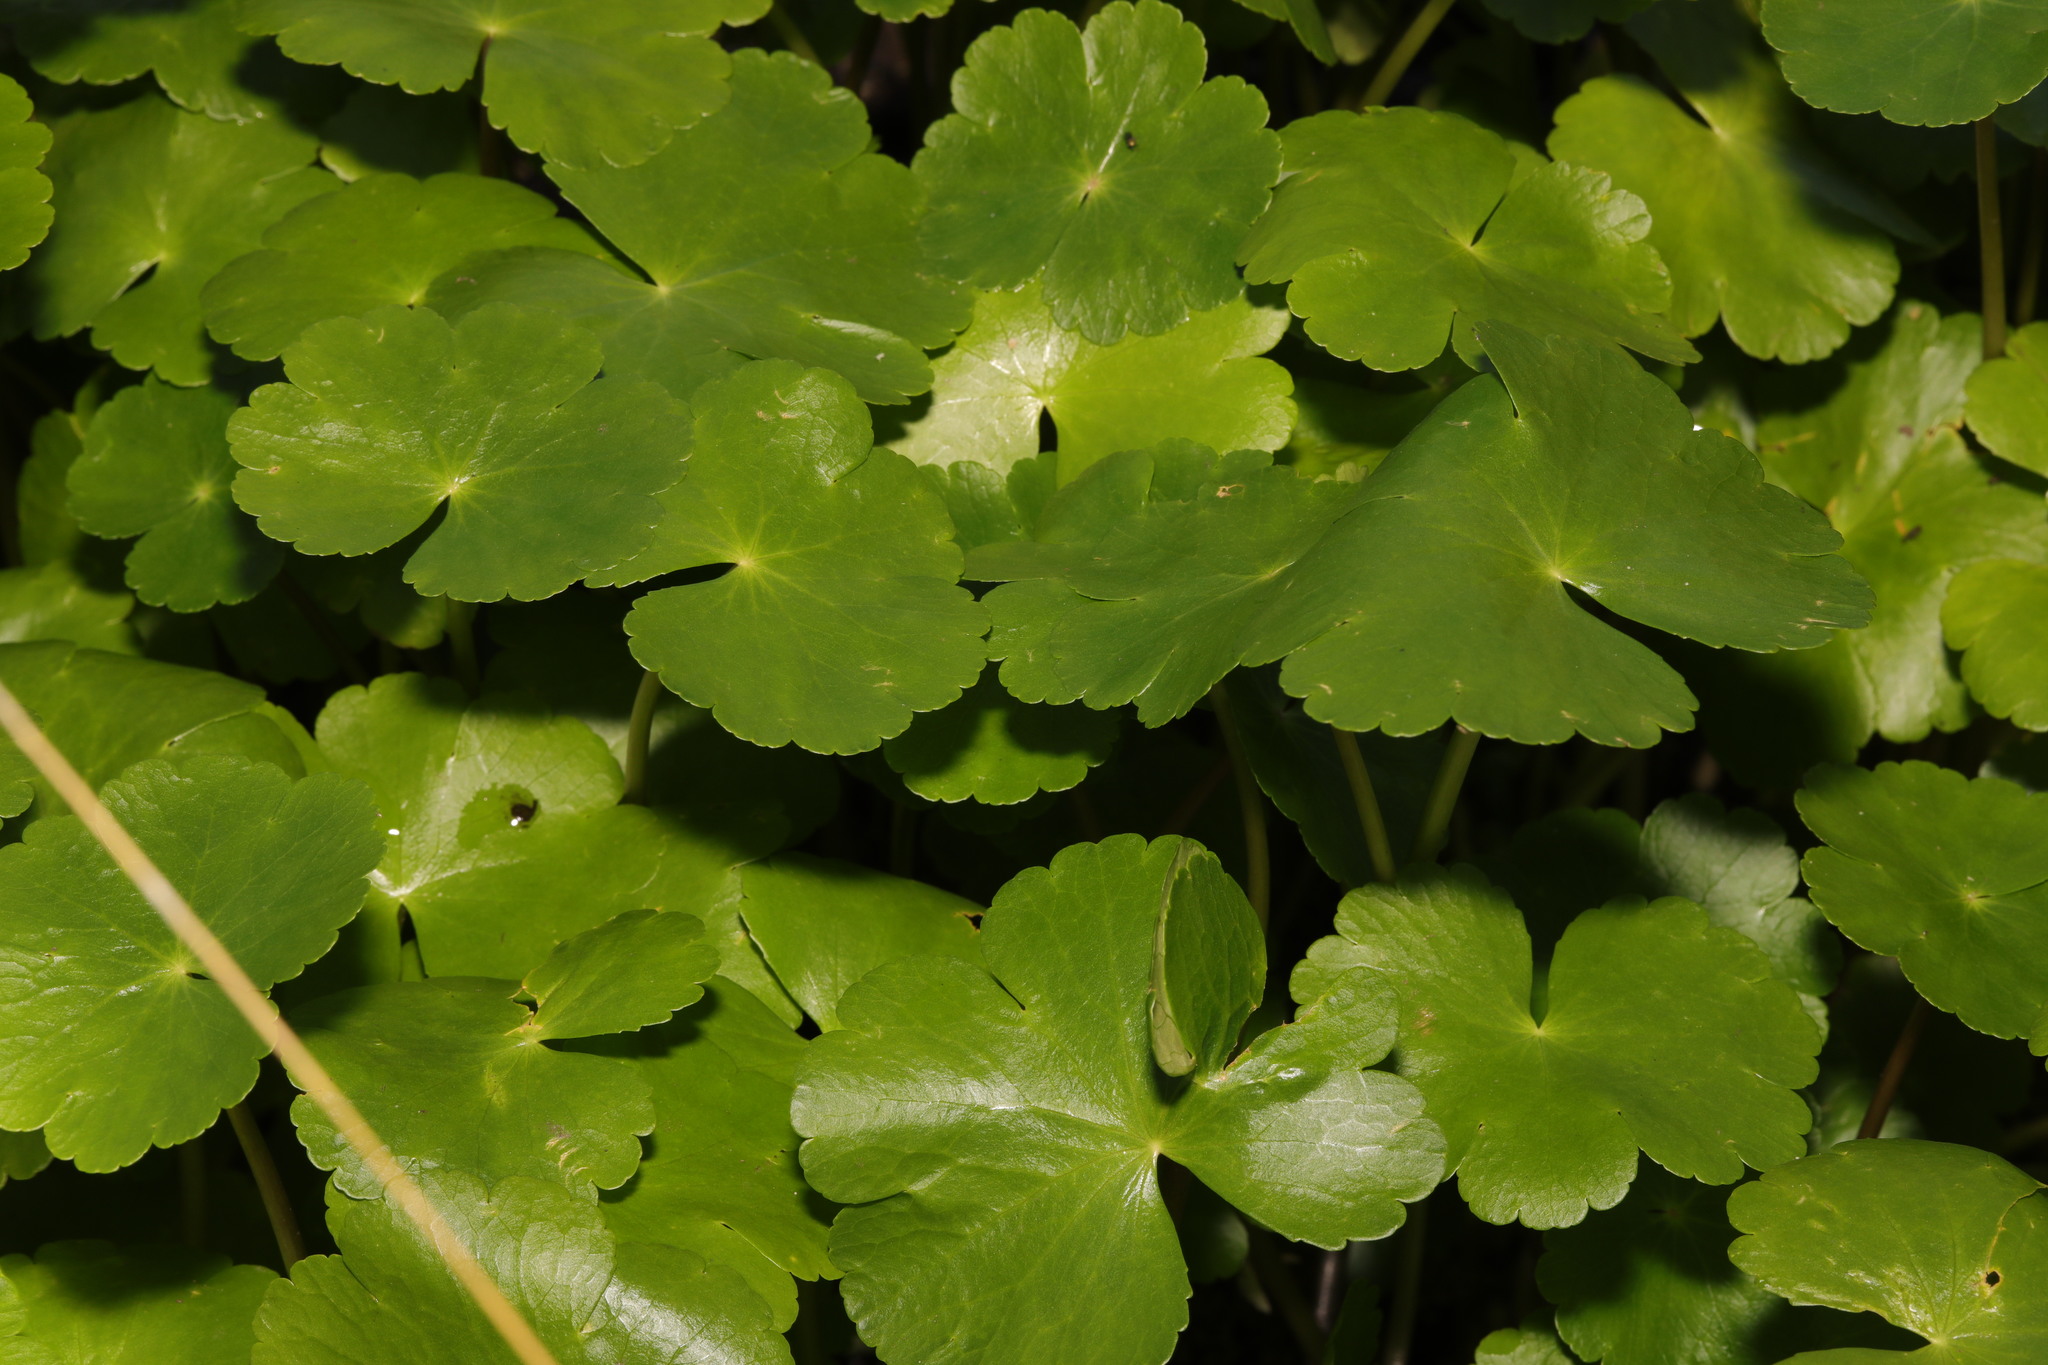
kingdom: Plantae
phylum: Tracheophyta
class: Magnoliopsida
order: Apiales
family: Araliaceae
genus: Hydrocotyle
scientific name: Hydrocotyle ranunculoides
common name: Floating pennywort
